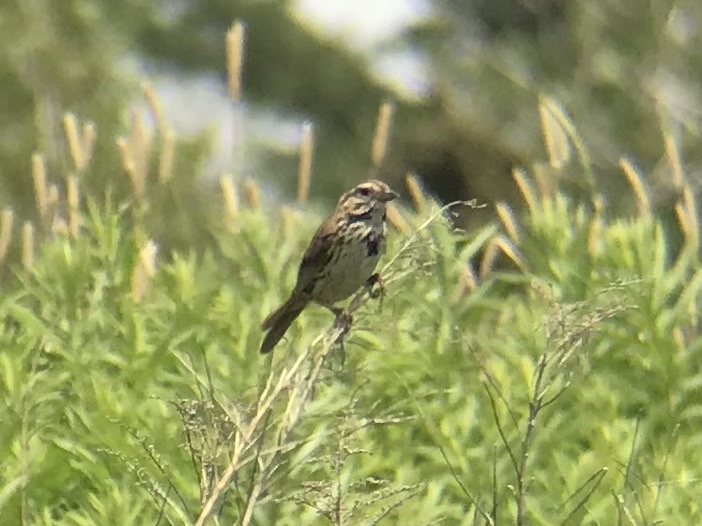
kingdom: Animalia
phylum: Chordata
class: Aves
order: Passeriformes
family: Passerellidae
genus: Melospiza
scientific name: Melospiza melodia
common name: Song sparrow
